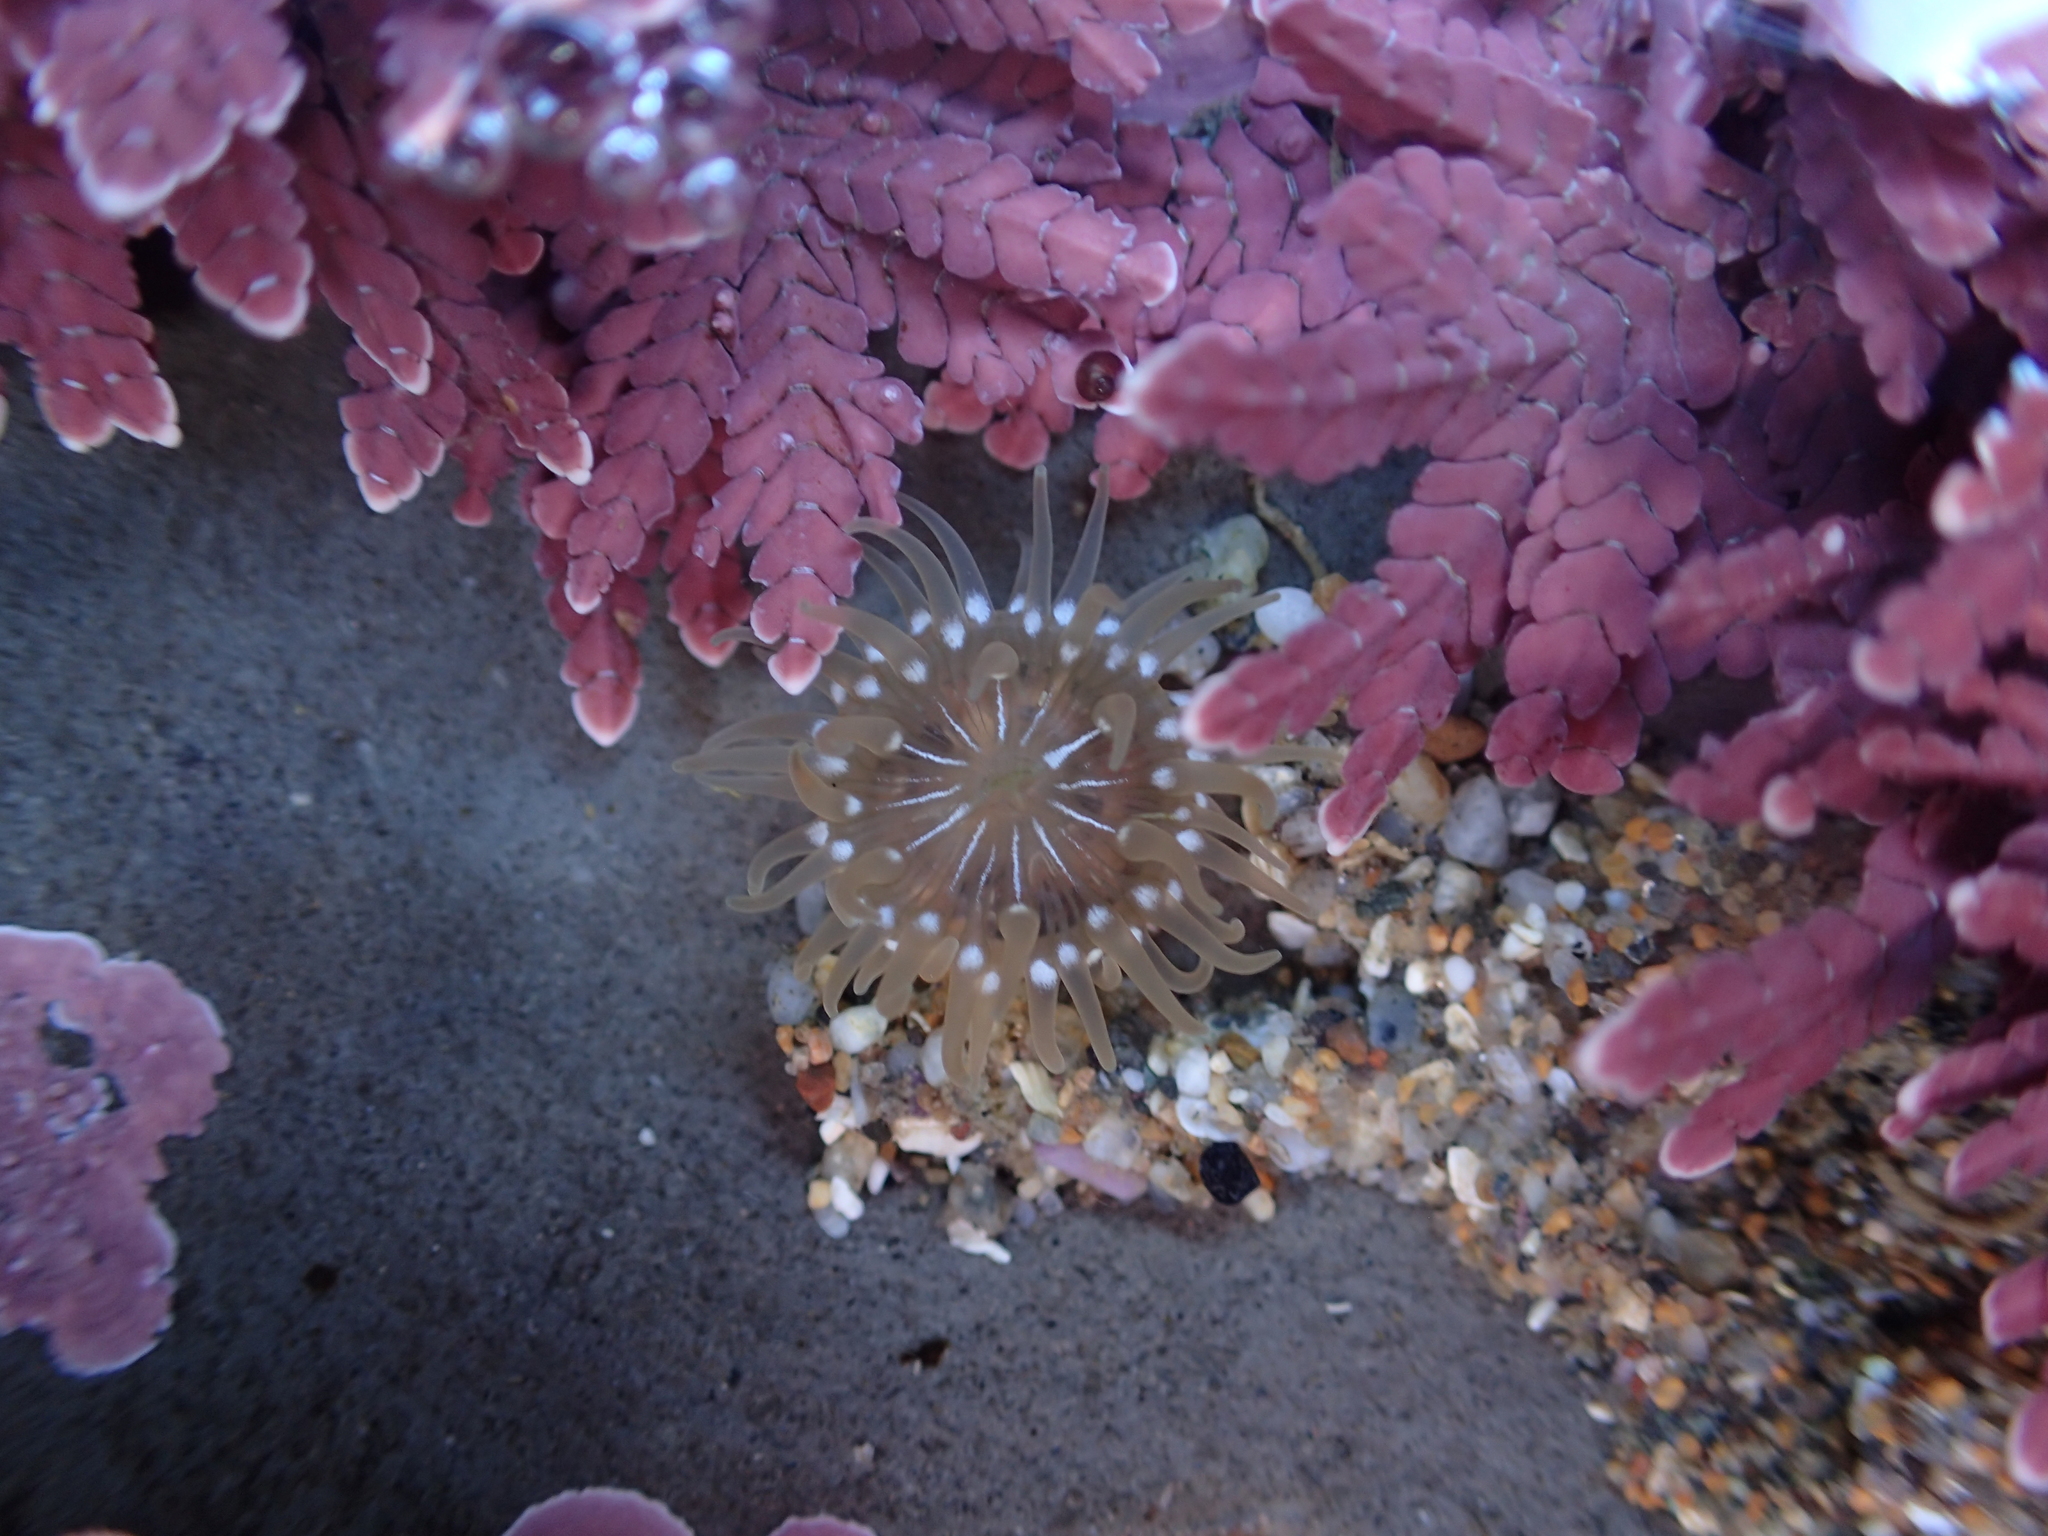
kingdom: Animalia
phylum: Cnidaria
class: Anthozoa
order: Actiniaria
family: Actiniidae
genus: Epiactis
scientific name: Epiactis prolifera
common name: Brooding anemone
